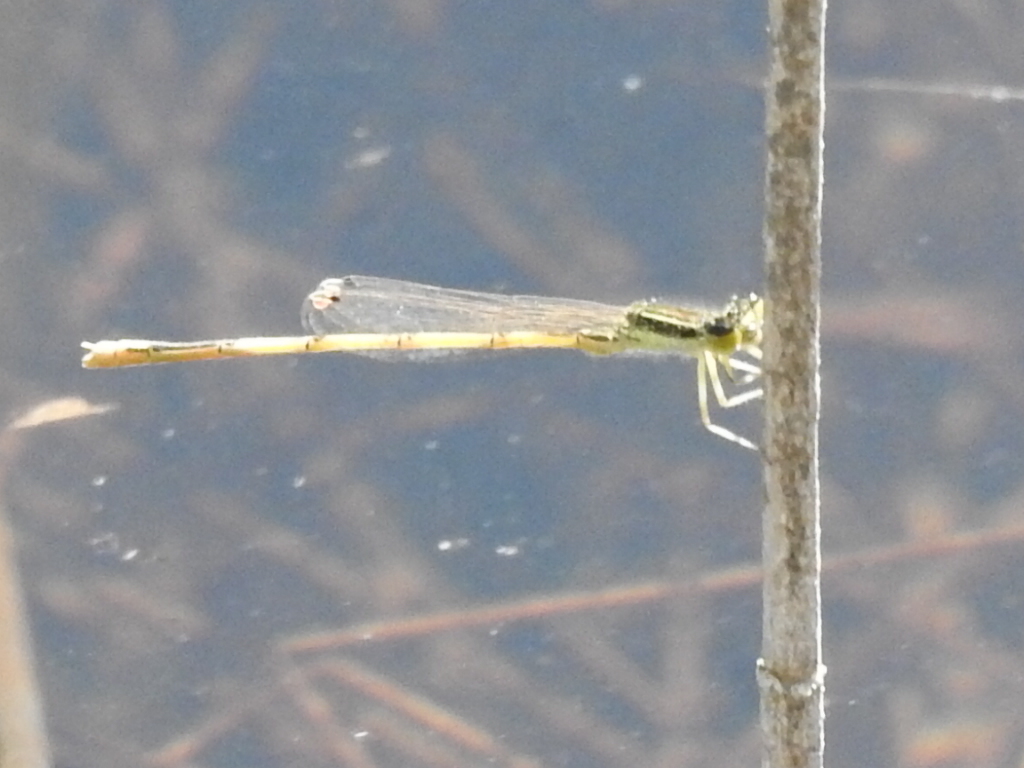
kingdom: Animalia
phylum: Arthropoda
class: Insecta
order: Odonata
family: Coenagrionidae
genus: Ischnura
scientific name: Ischnura hastata
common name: Citrine forktail
